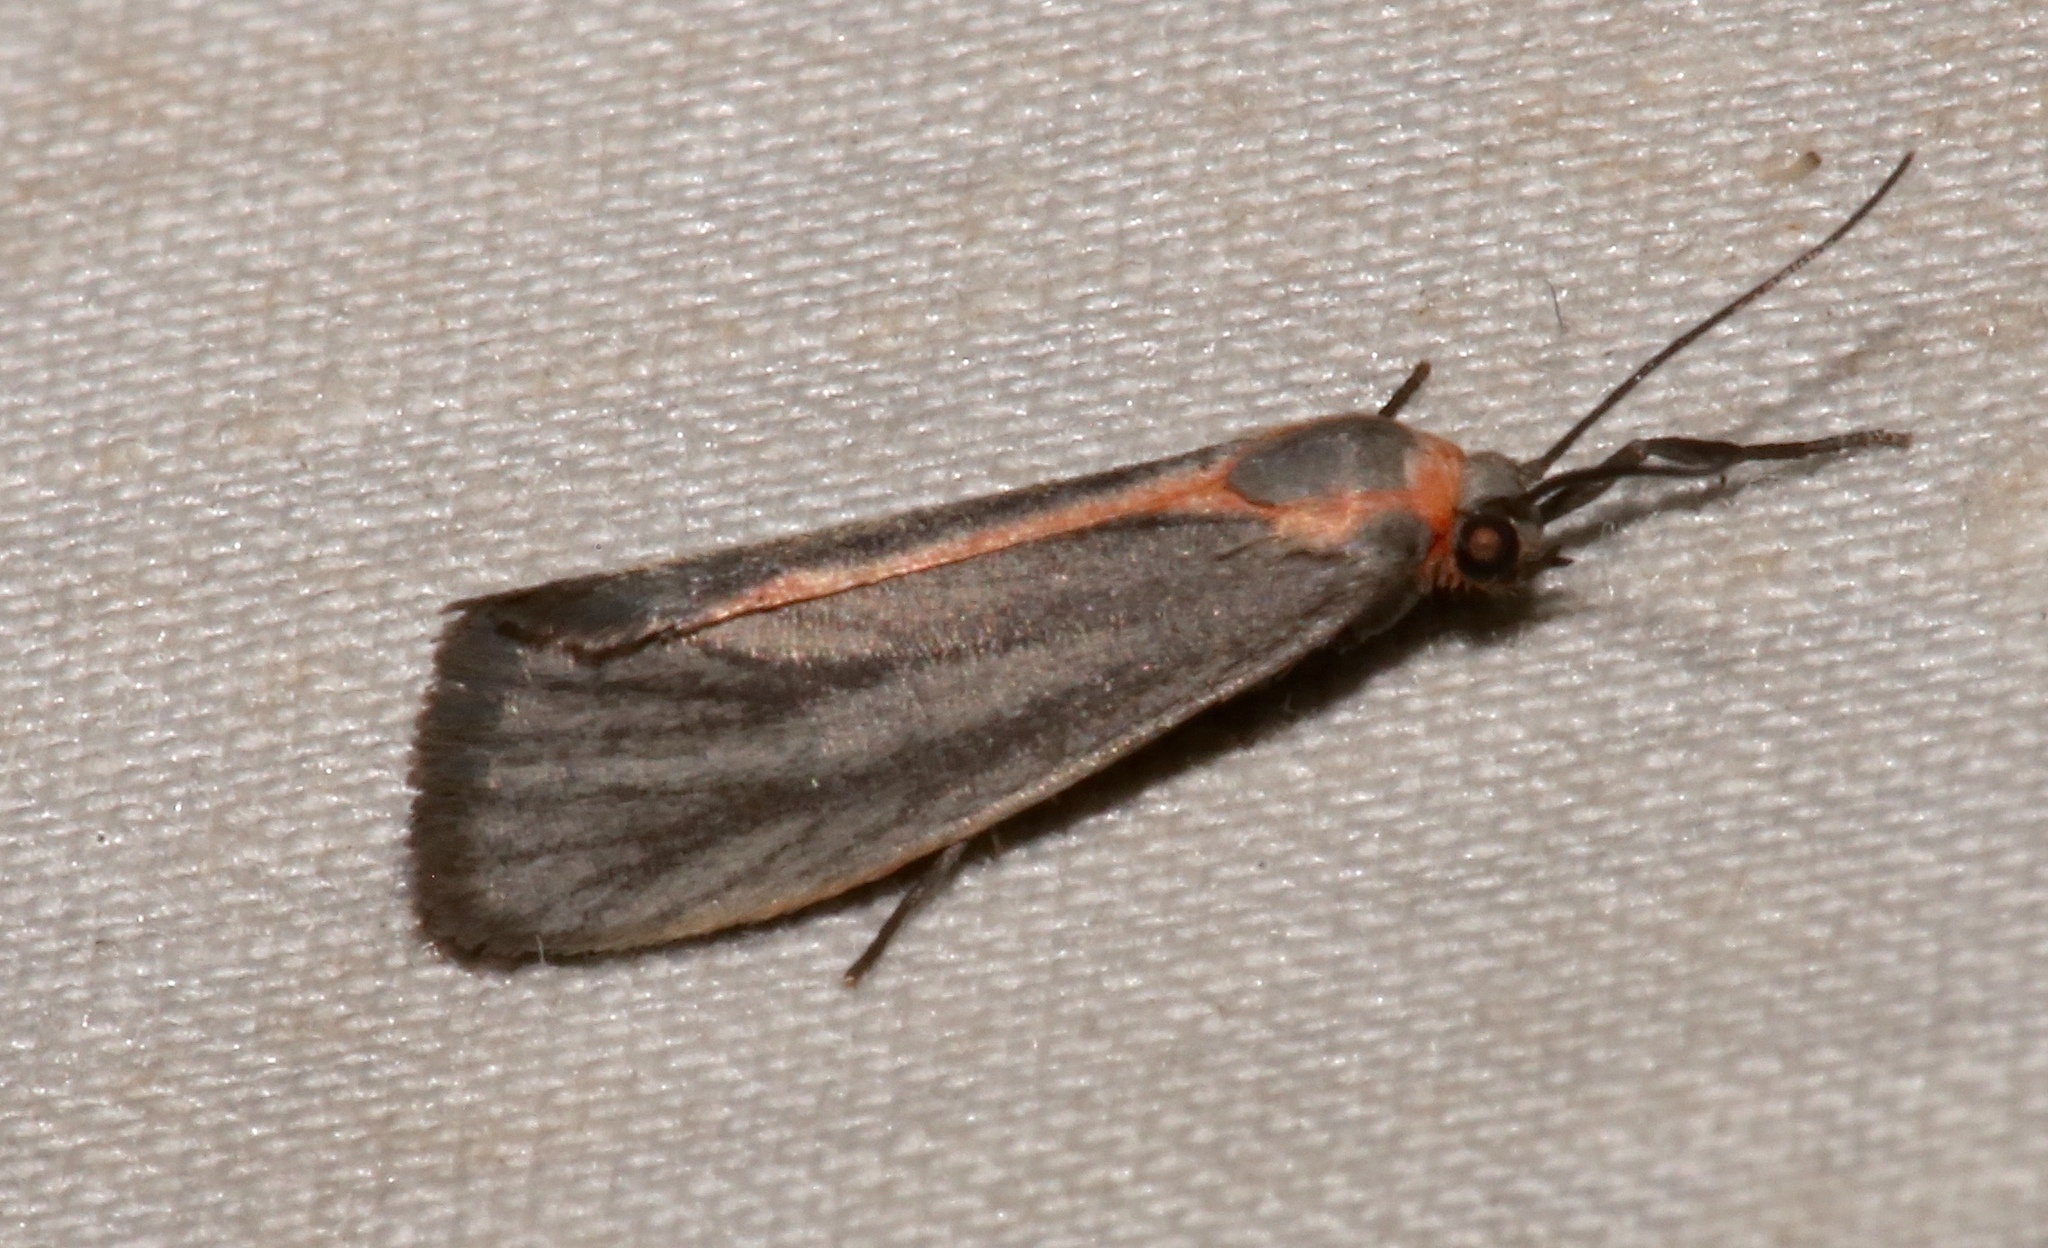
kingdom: Animalia
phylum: Arthropoda
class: Insecta
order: Lepidoptera
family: Erebidae
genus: Cisthene
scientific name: Cisthene striata
